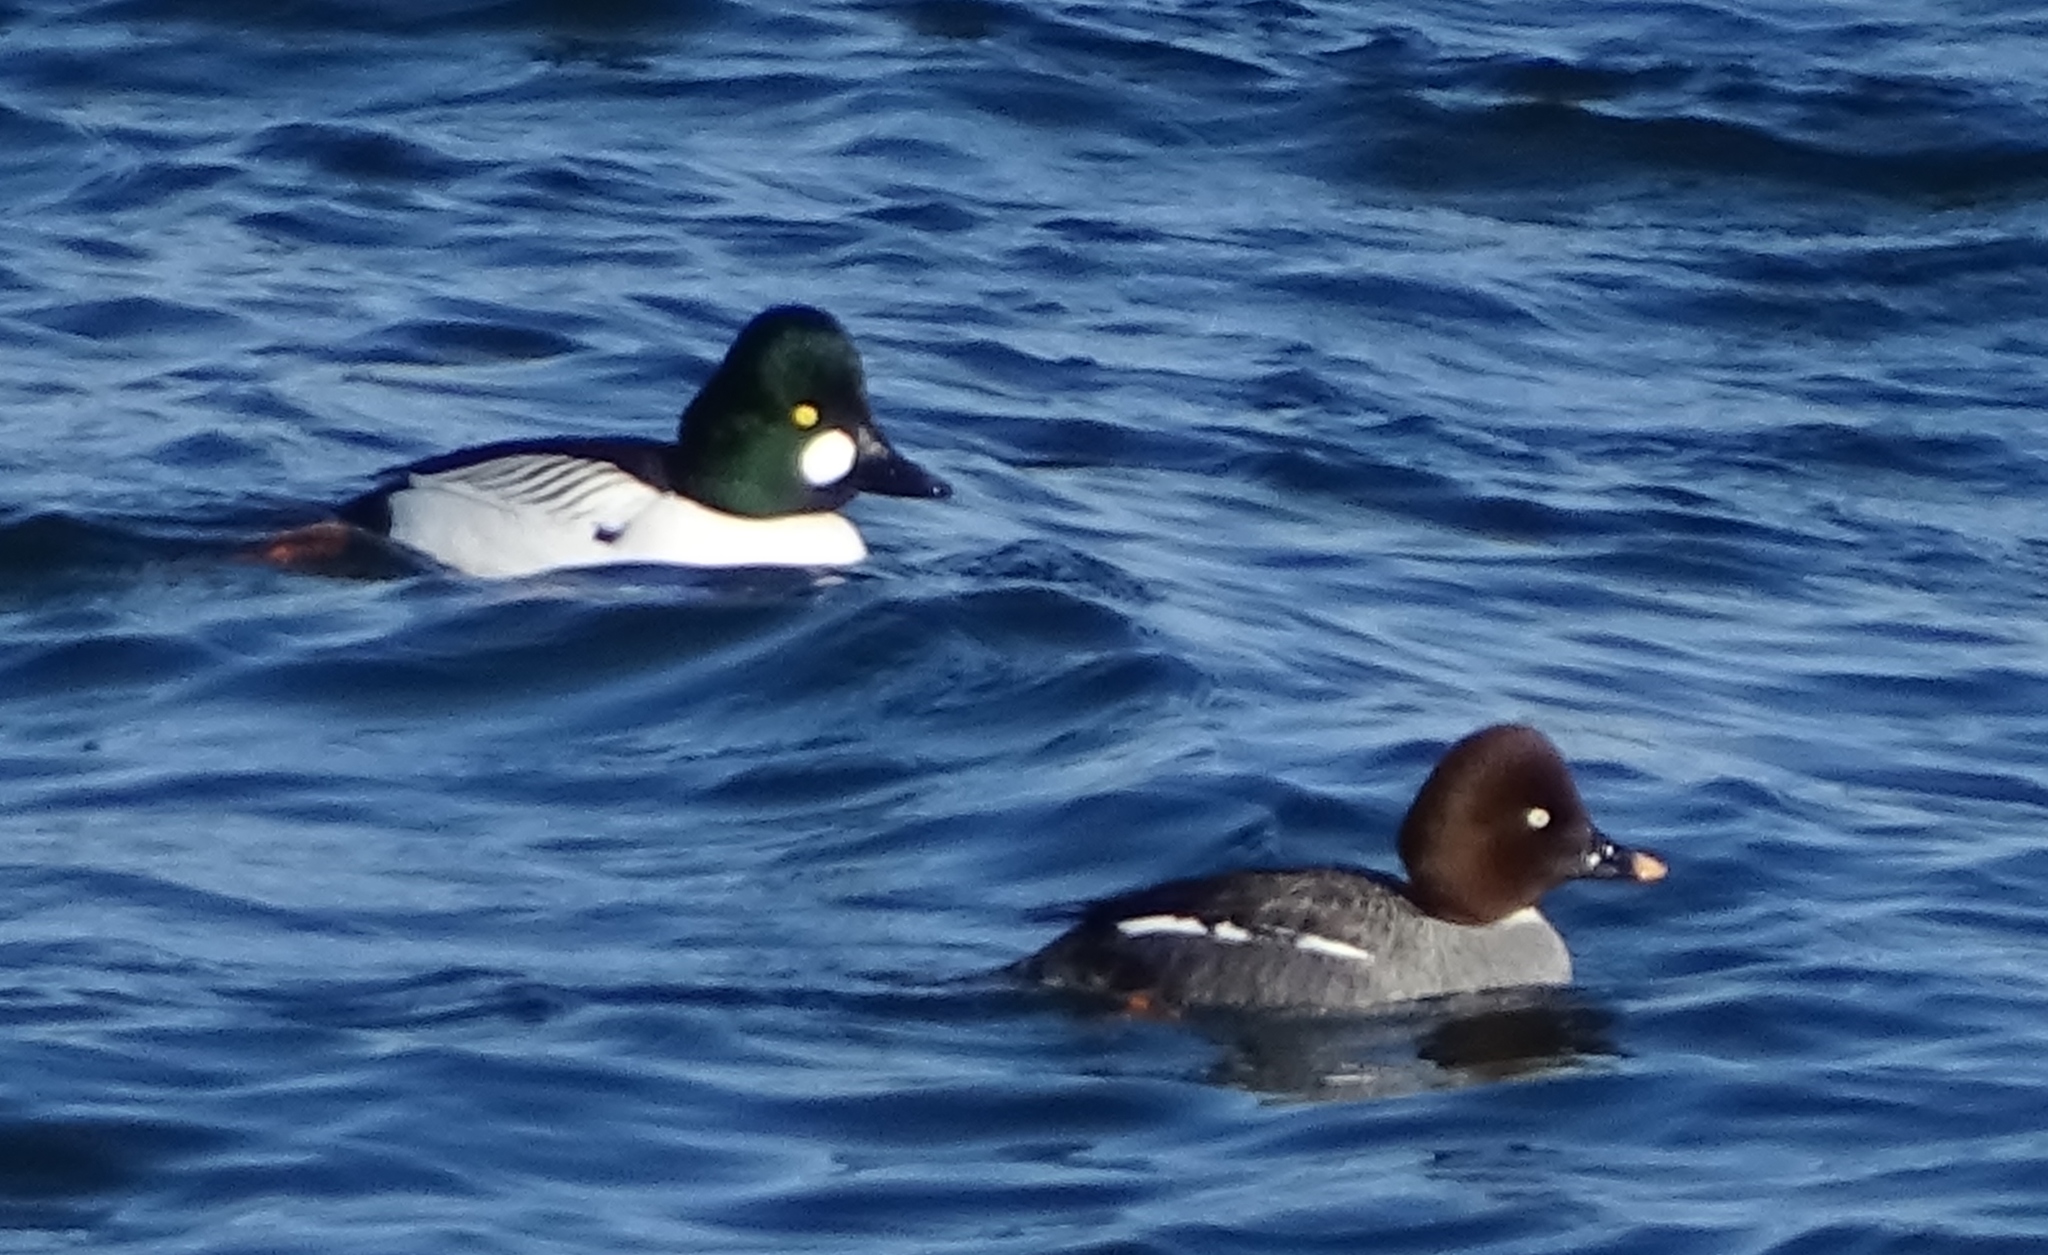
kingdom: Animalia
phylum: Chordata
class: Aves
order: Anseriformes
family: Anatidae
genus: Bucephala
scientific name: Bucephala clangula
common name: Common goldeneye
